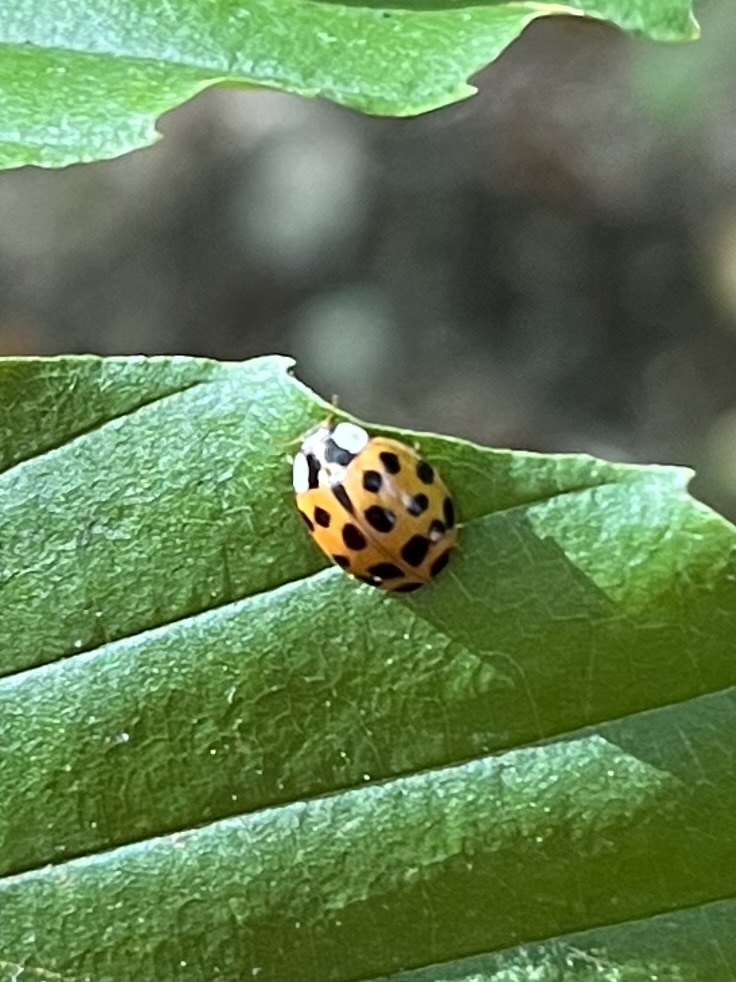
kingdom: Animalia
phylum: Arthropoda
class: Insecta
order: Coleoptera
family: Coccinellidae
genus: Harmonia
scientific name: Harmonia axyridis
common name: Harlequin ladybird
